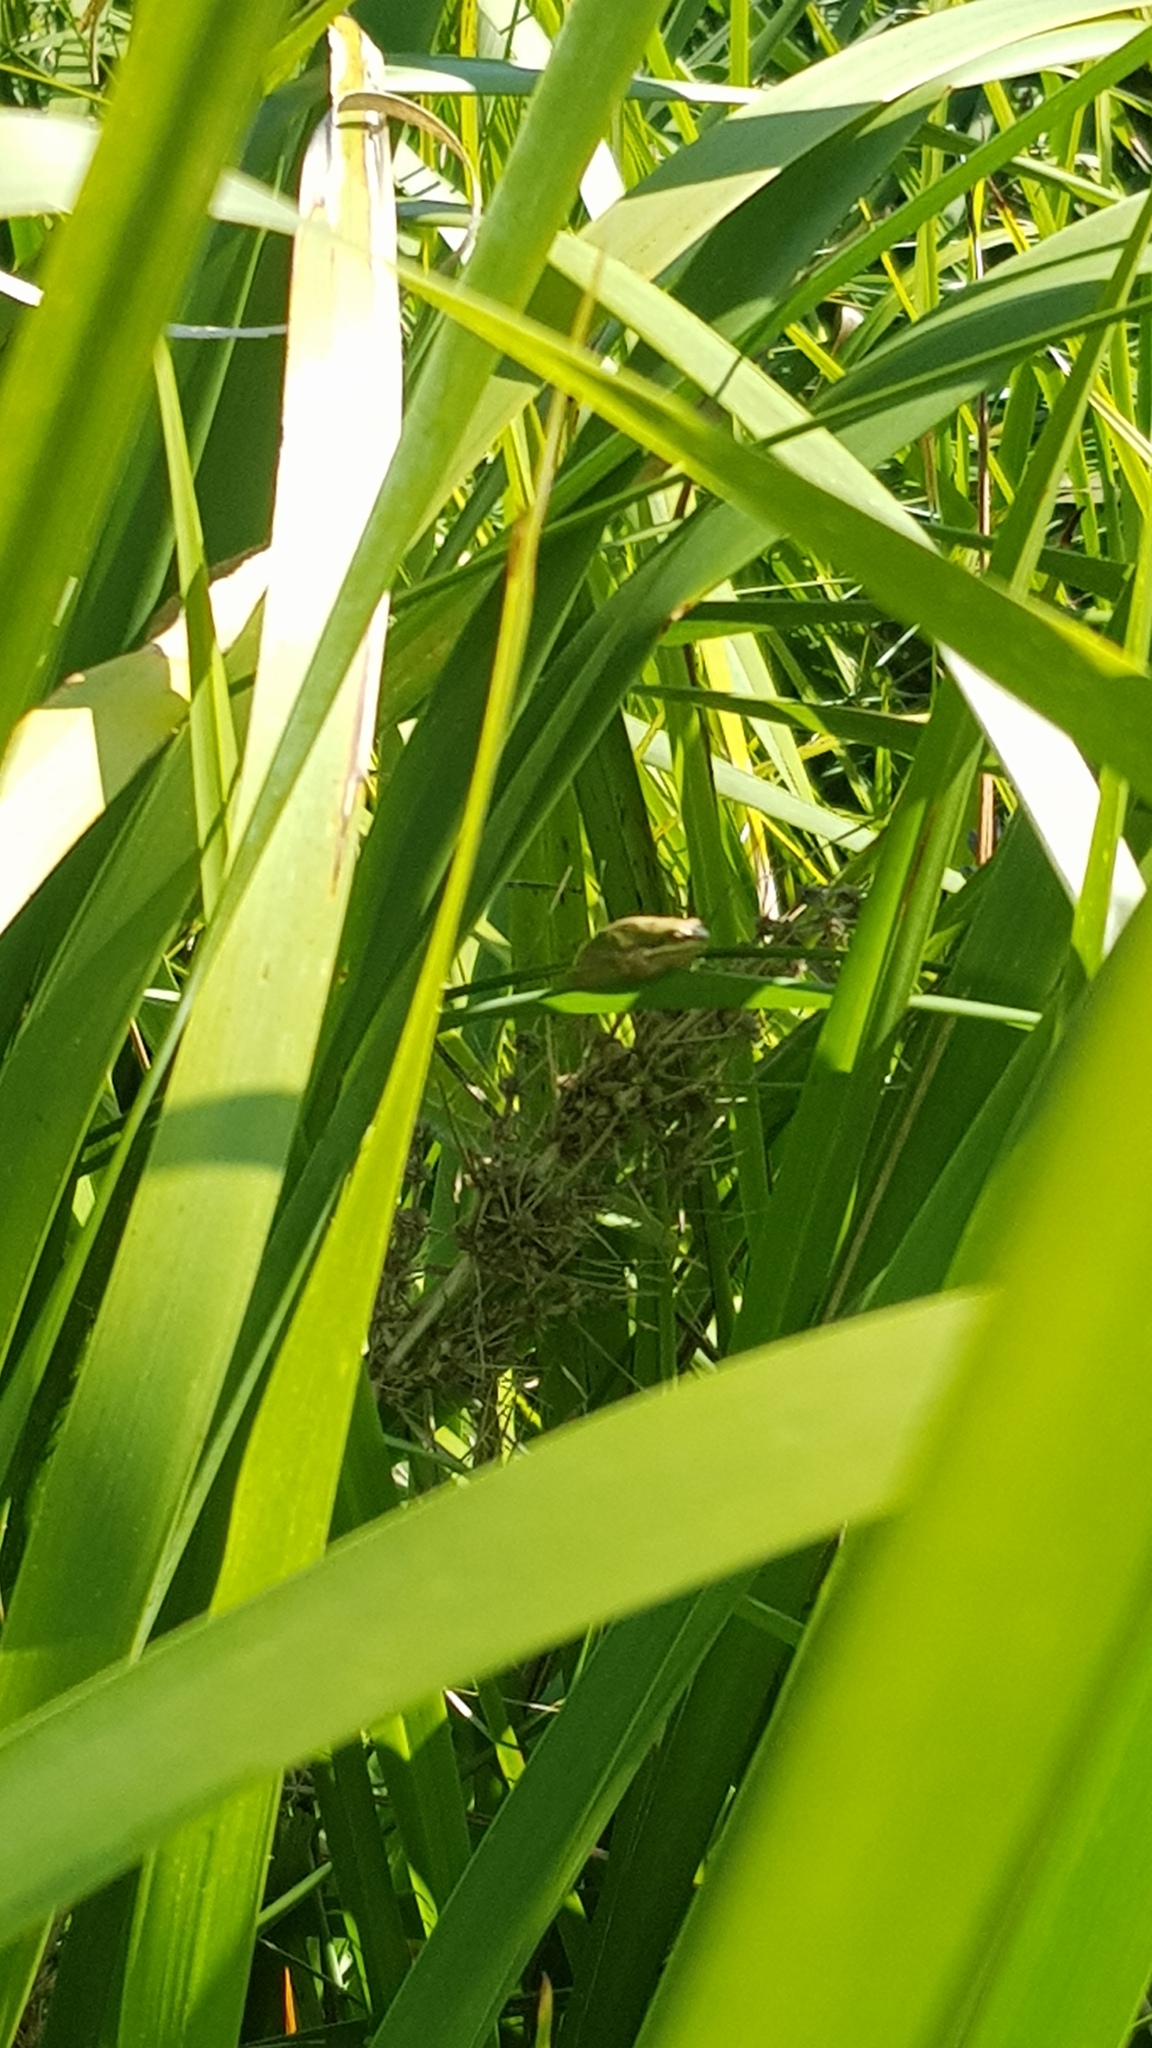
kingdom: Animalia
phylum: Chordata
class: Amphibia
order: Anura
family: Pelodryadidae
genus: Litoria
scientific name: Litoria fallax
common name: Eastern dwarf treefrog
